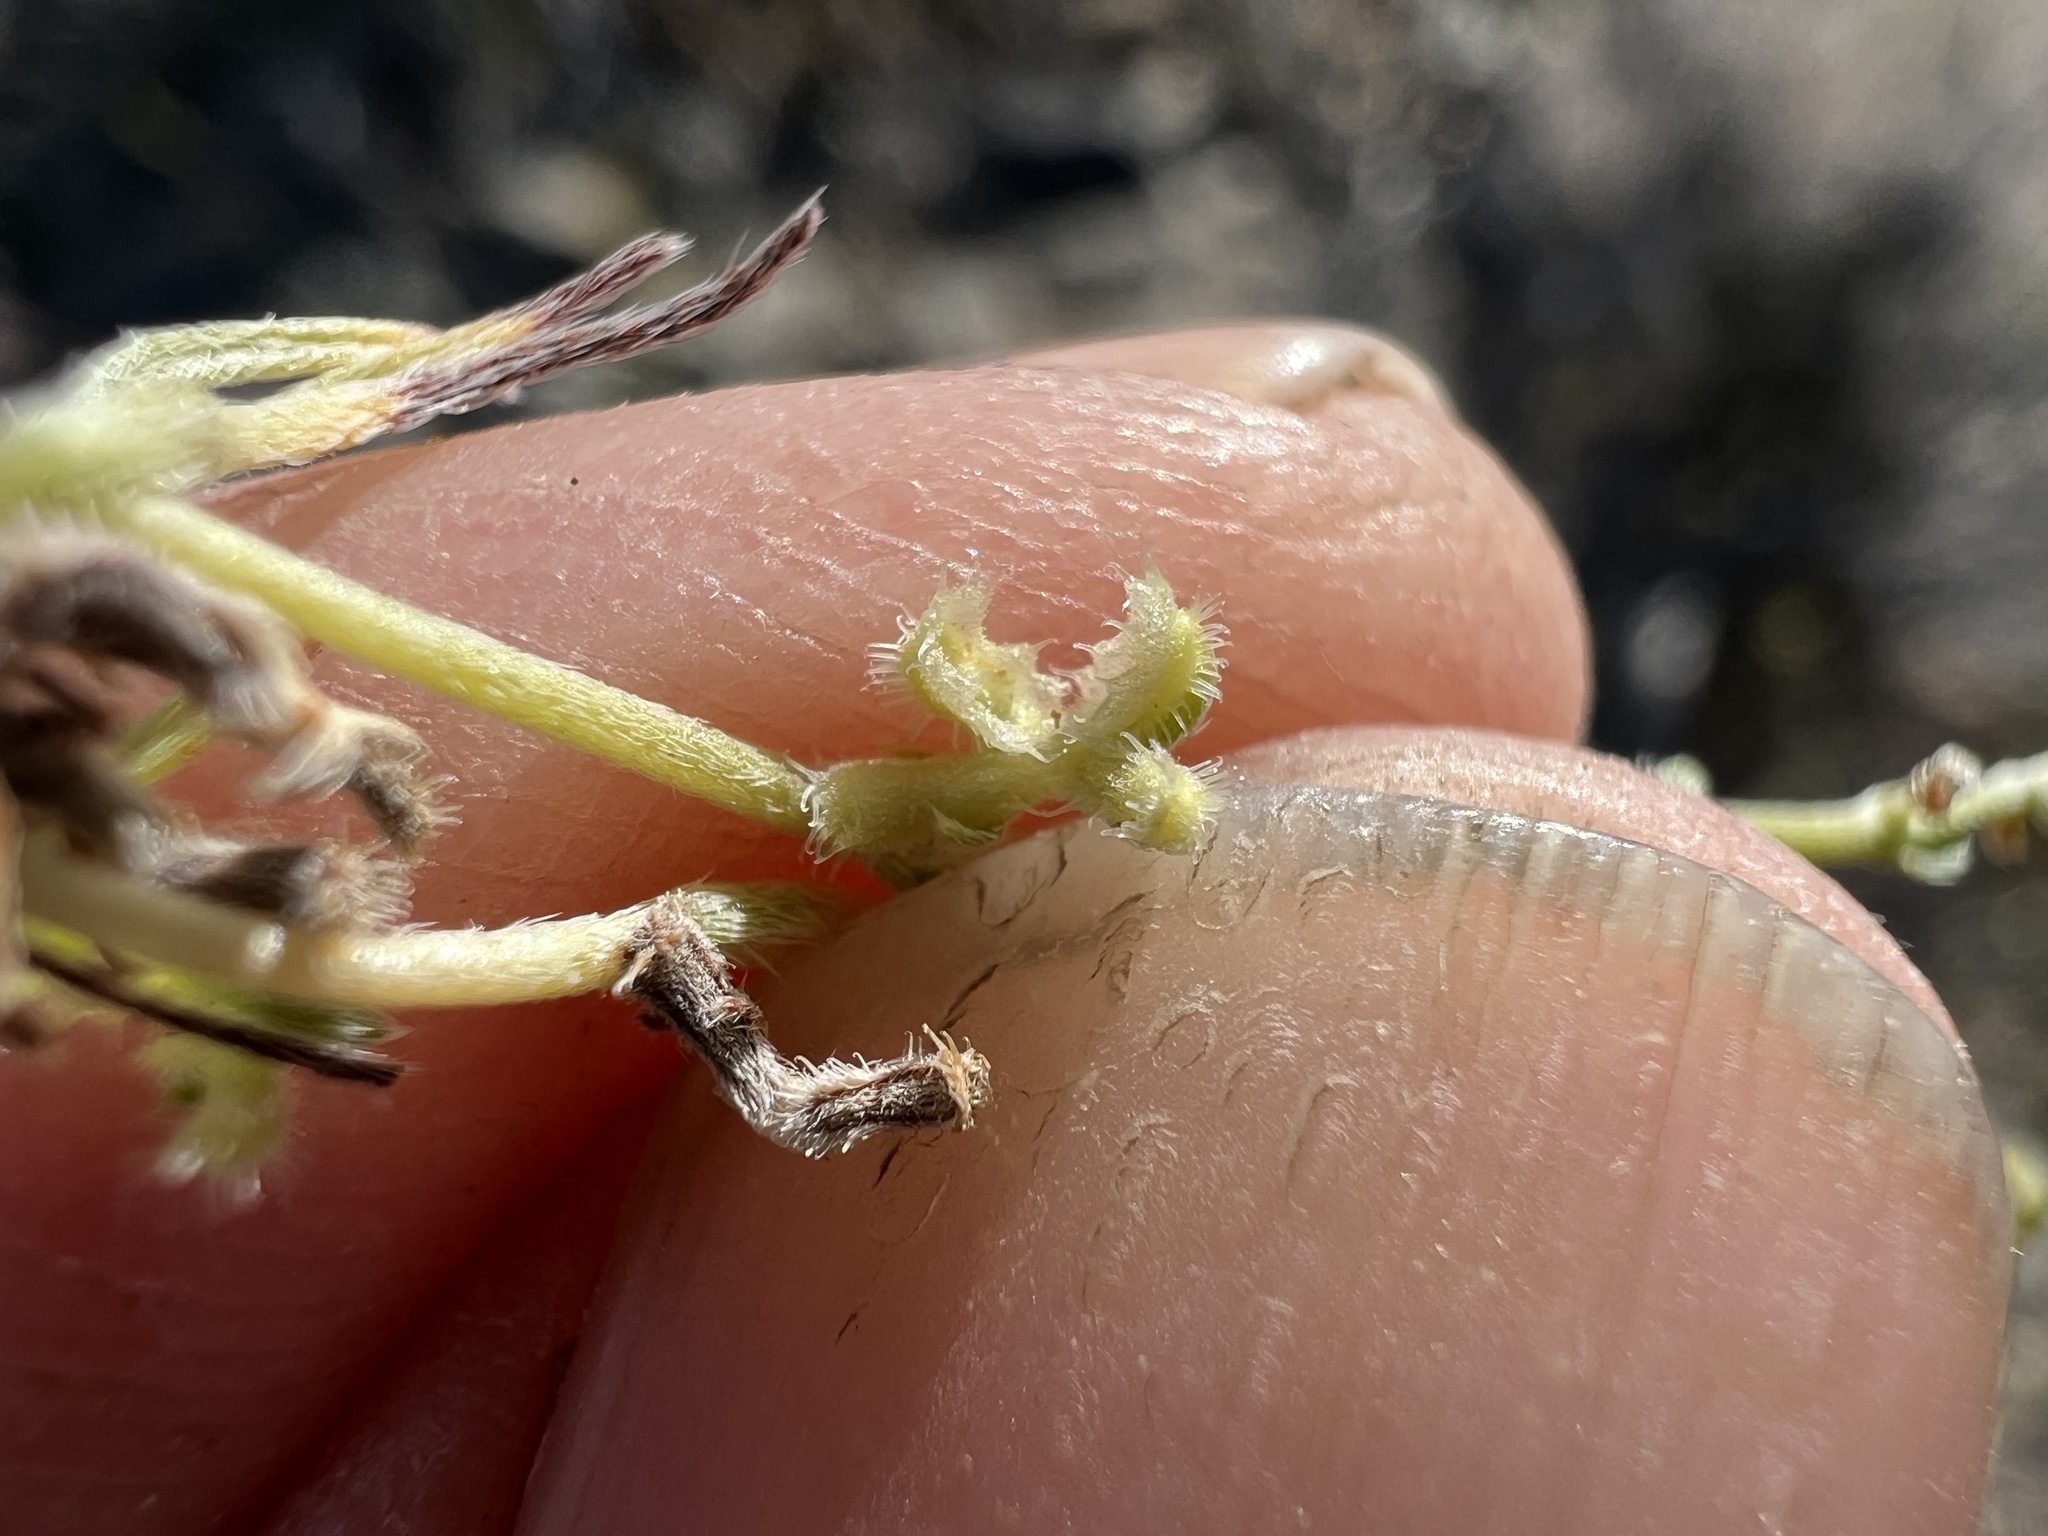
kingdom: Plantae
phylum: Tracheophyta
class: Magnoliopsida
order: Boraginales
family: Boraginaceae
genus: Pectocarya
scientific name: Pectocarya heterocarpa
